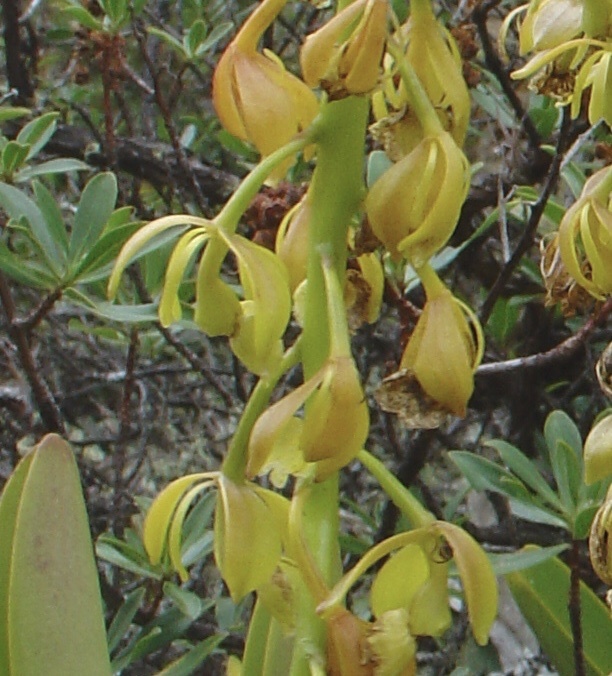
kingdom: Plantae
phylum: Tracheophyta
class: Liliopsida
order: Asparagales
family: Orchidaceae
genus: Epidendrum
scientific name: Epidendrum densifolium
